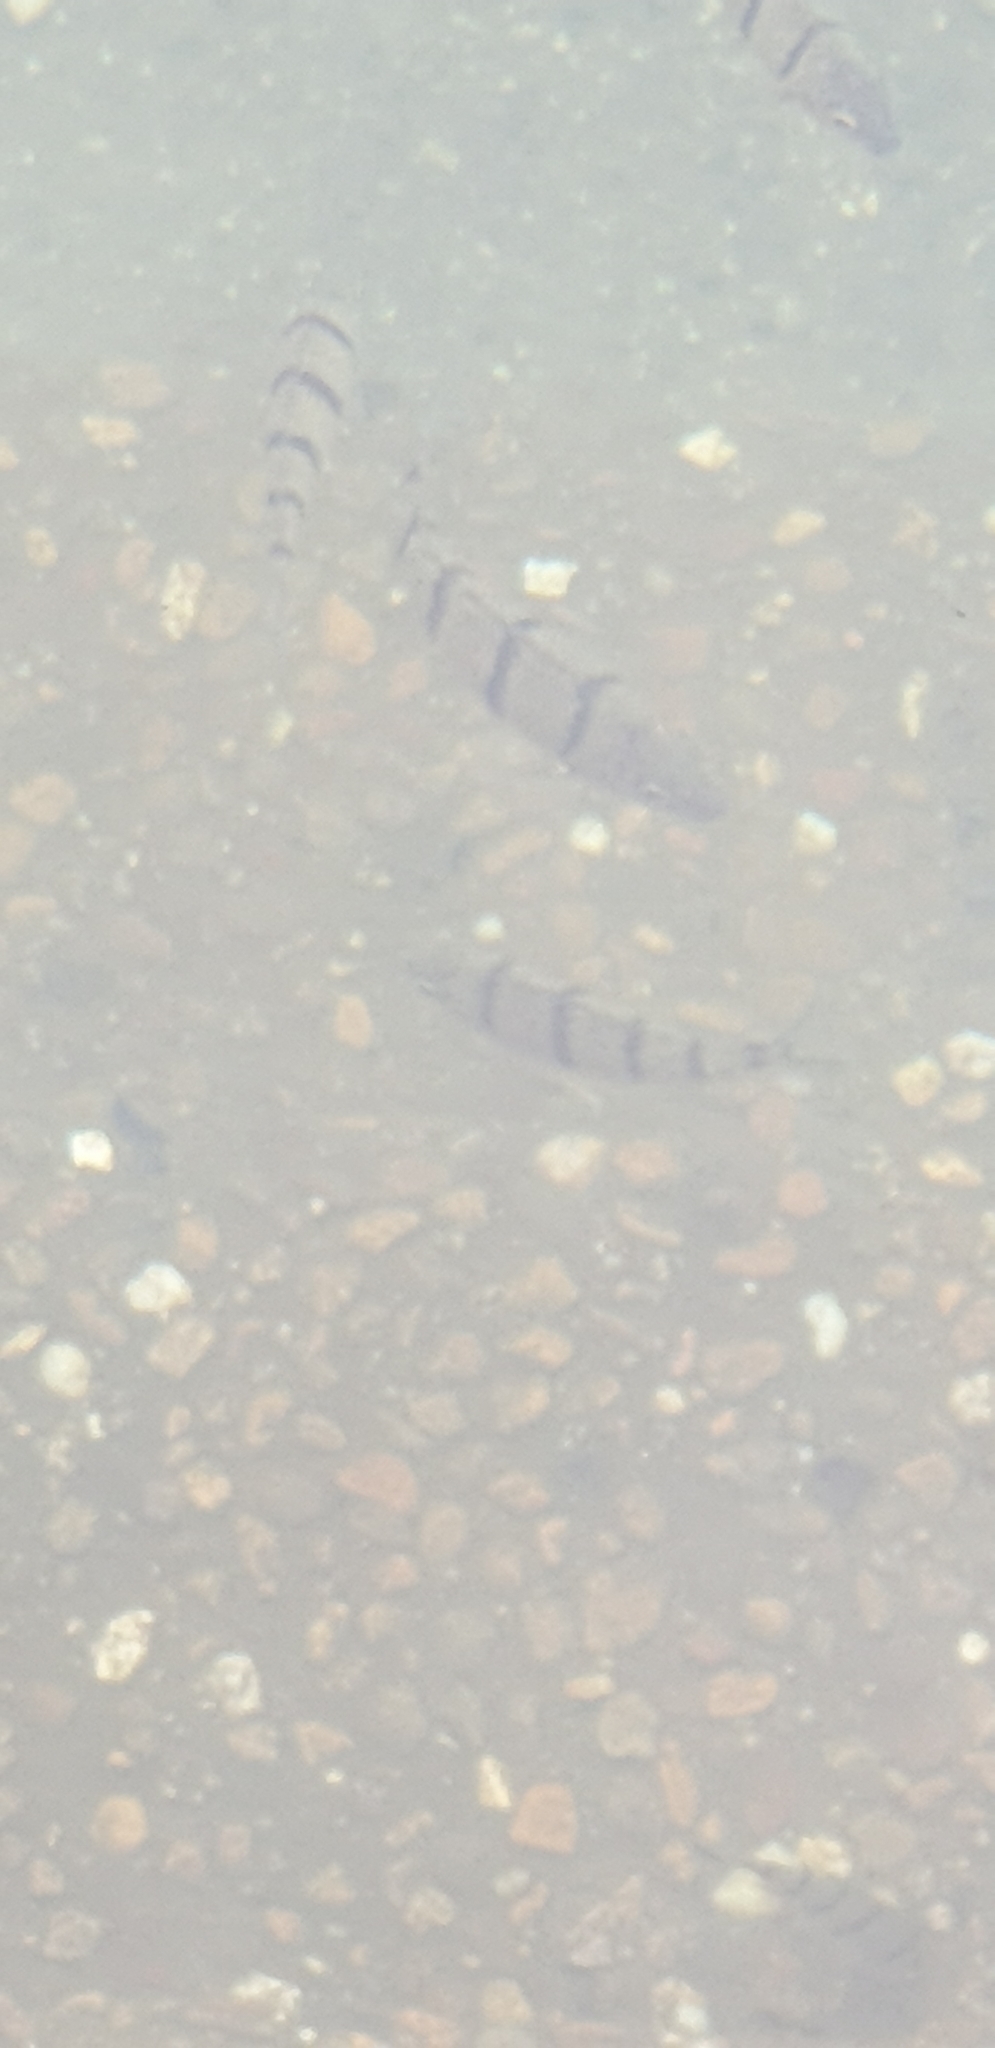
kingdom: Animalia
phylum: Chordata
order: Perciformes
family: Terapontidae
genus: Amniataba
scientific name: Amniataba percoides
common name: Banded grunter
